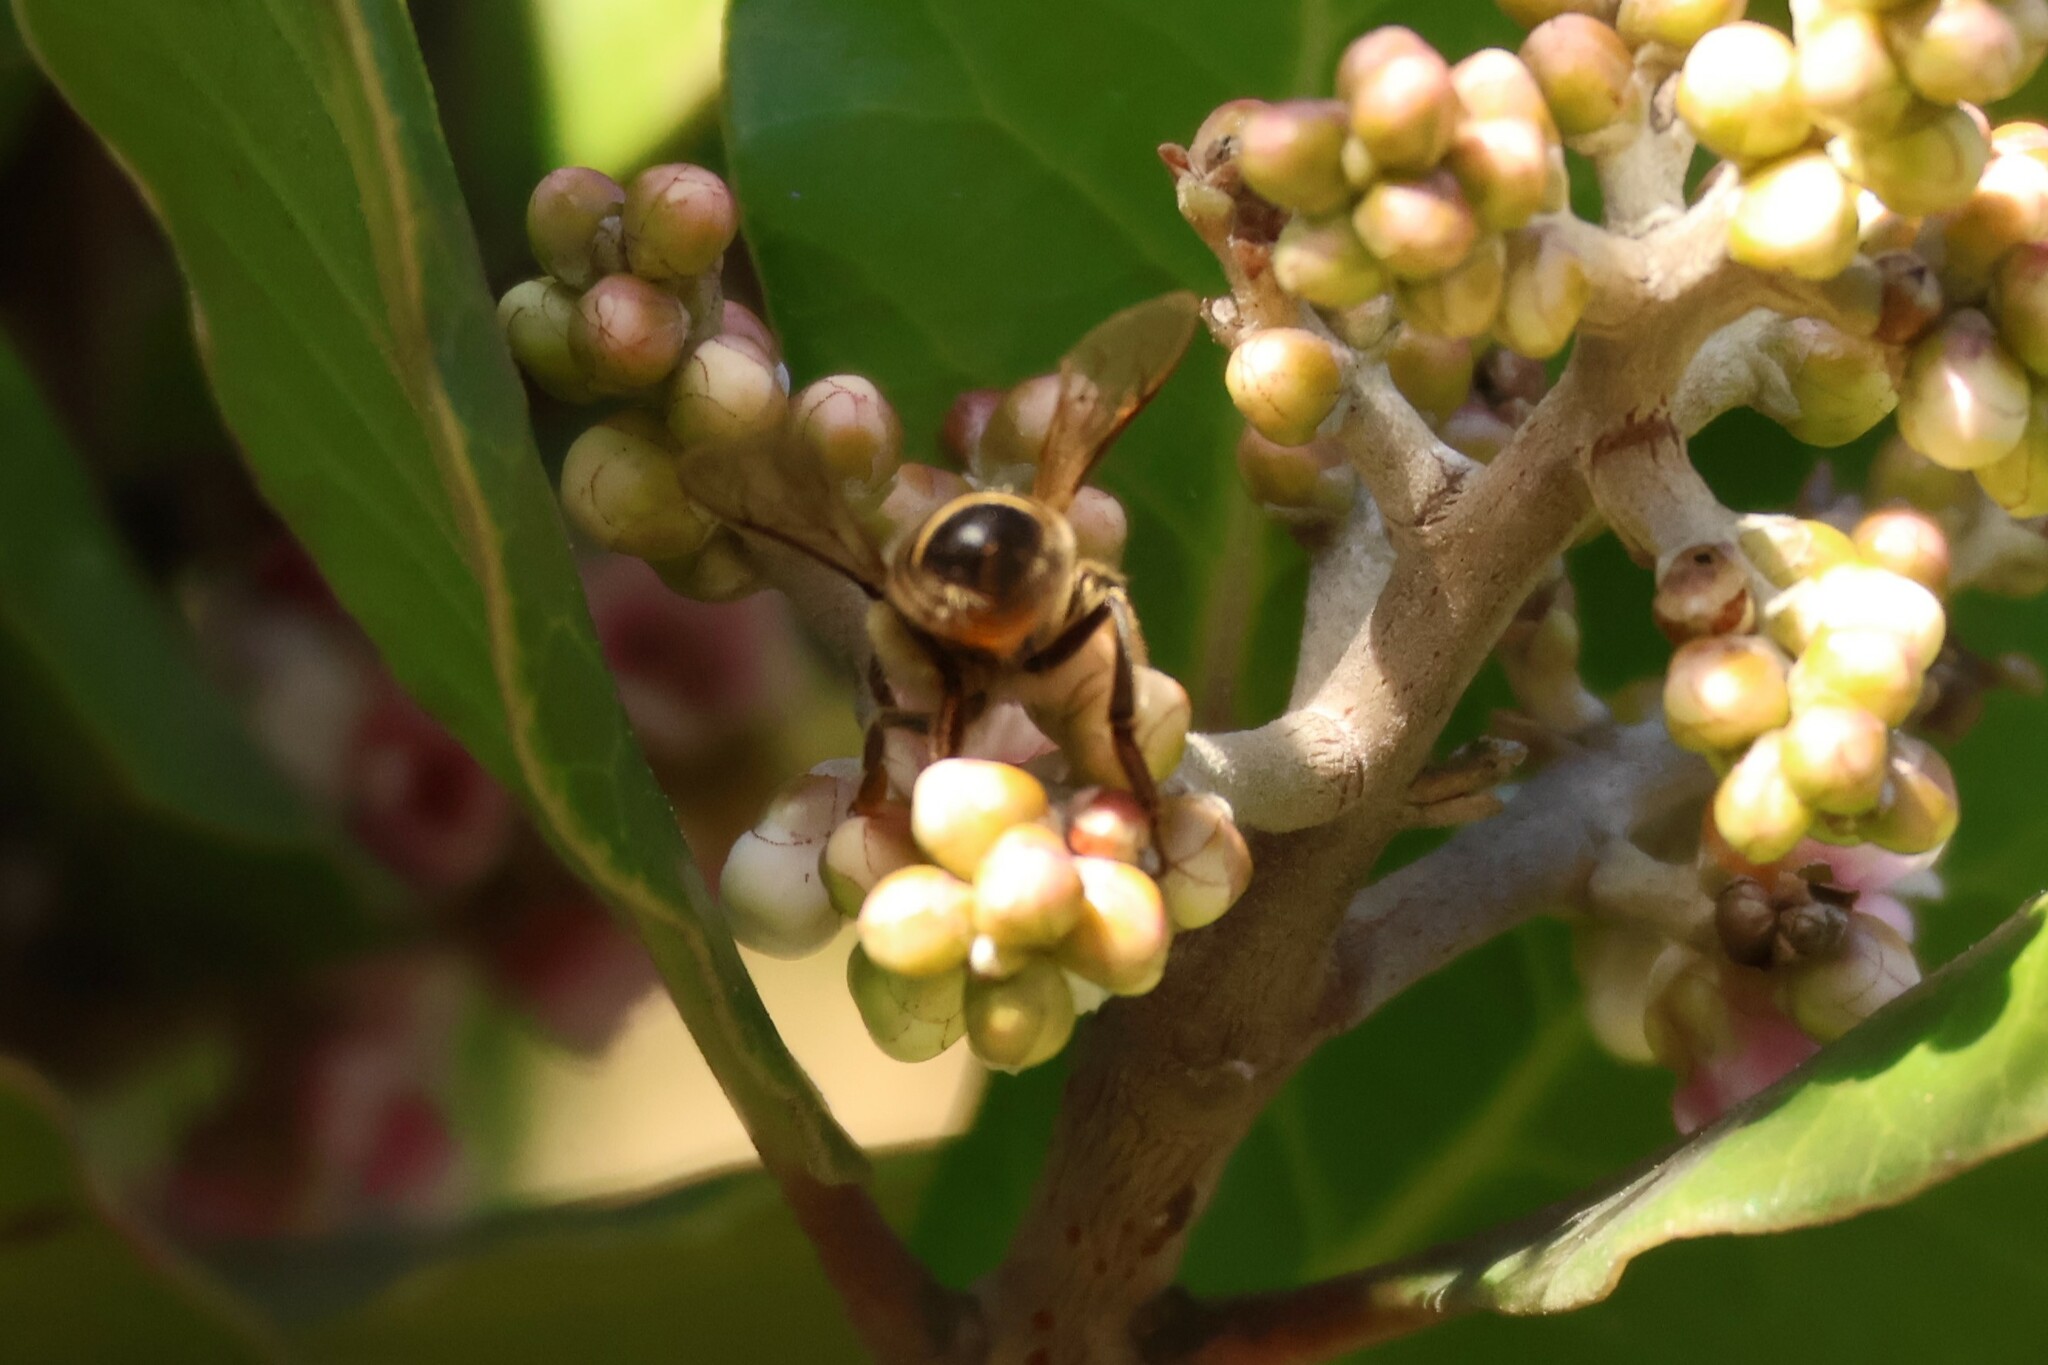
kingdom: Animalia
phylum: Arthropoda
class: Insecta
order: Hymenoptera
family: Apidae
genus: Apis
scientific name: Apis mellifera
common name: Honey bee
